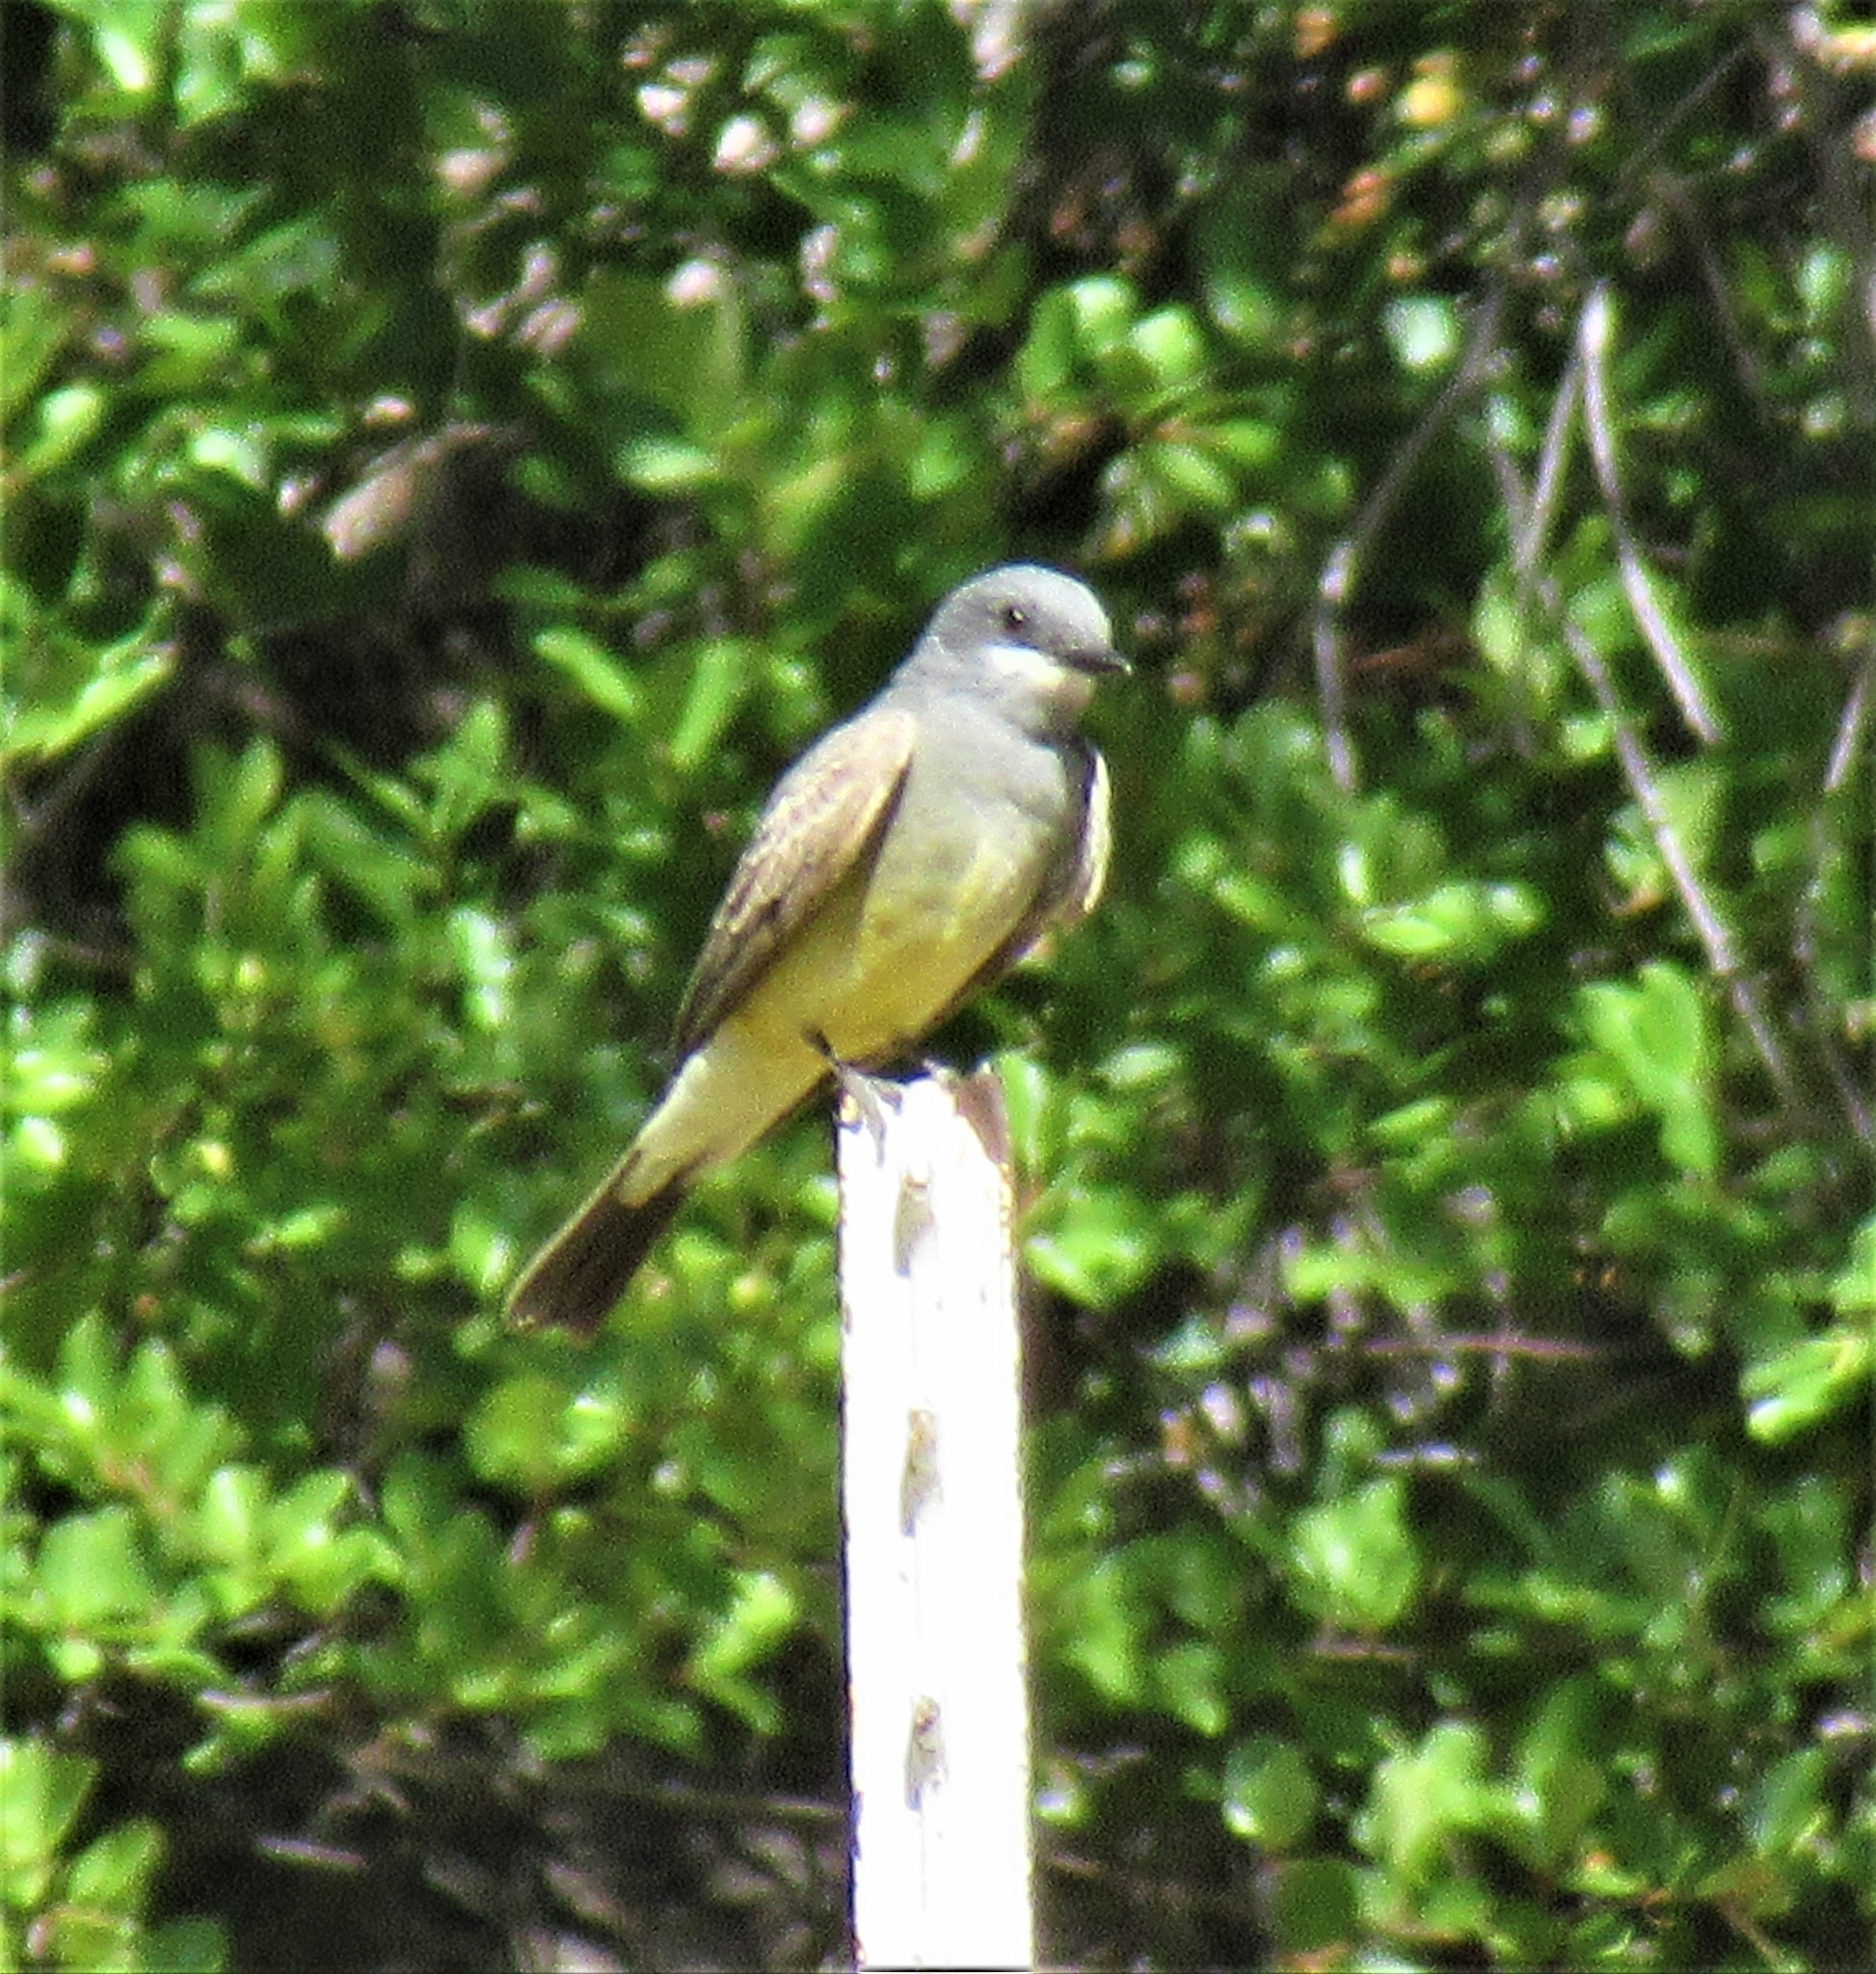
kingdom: Animalia
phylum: Chordata
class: Aves
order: Passeriformes
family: Tyrannidae
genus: Tyrannus
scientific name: Tyrannus vociferans
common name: Cassin's kingbird
